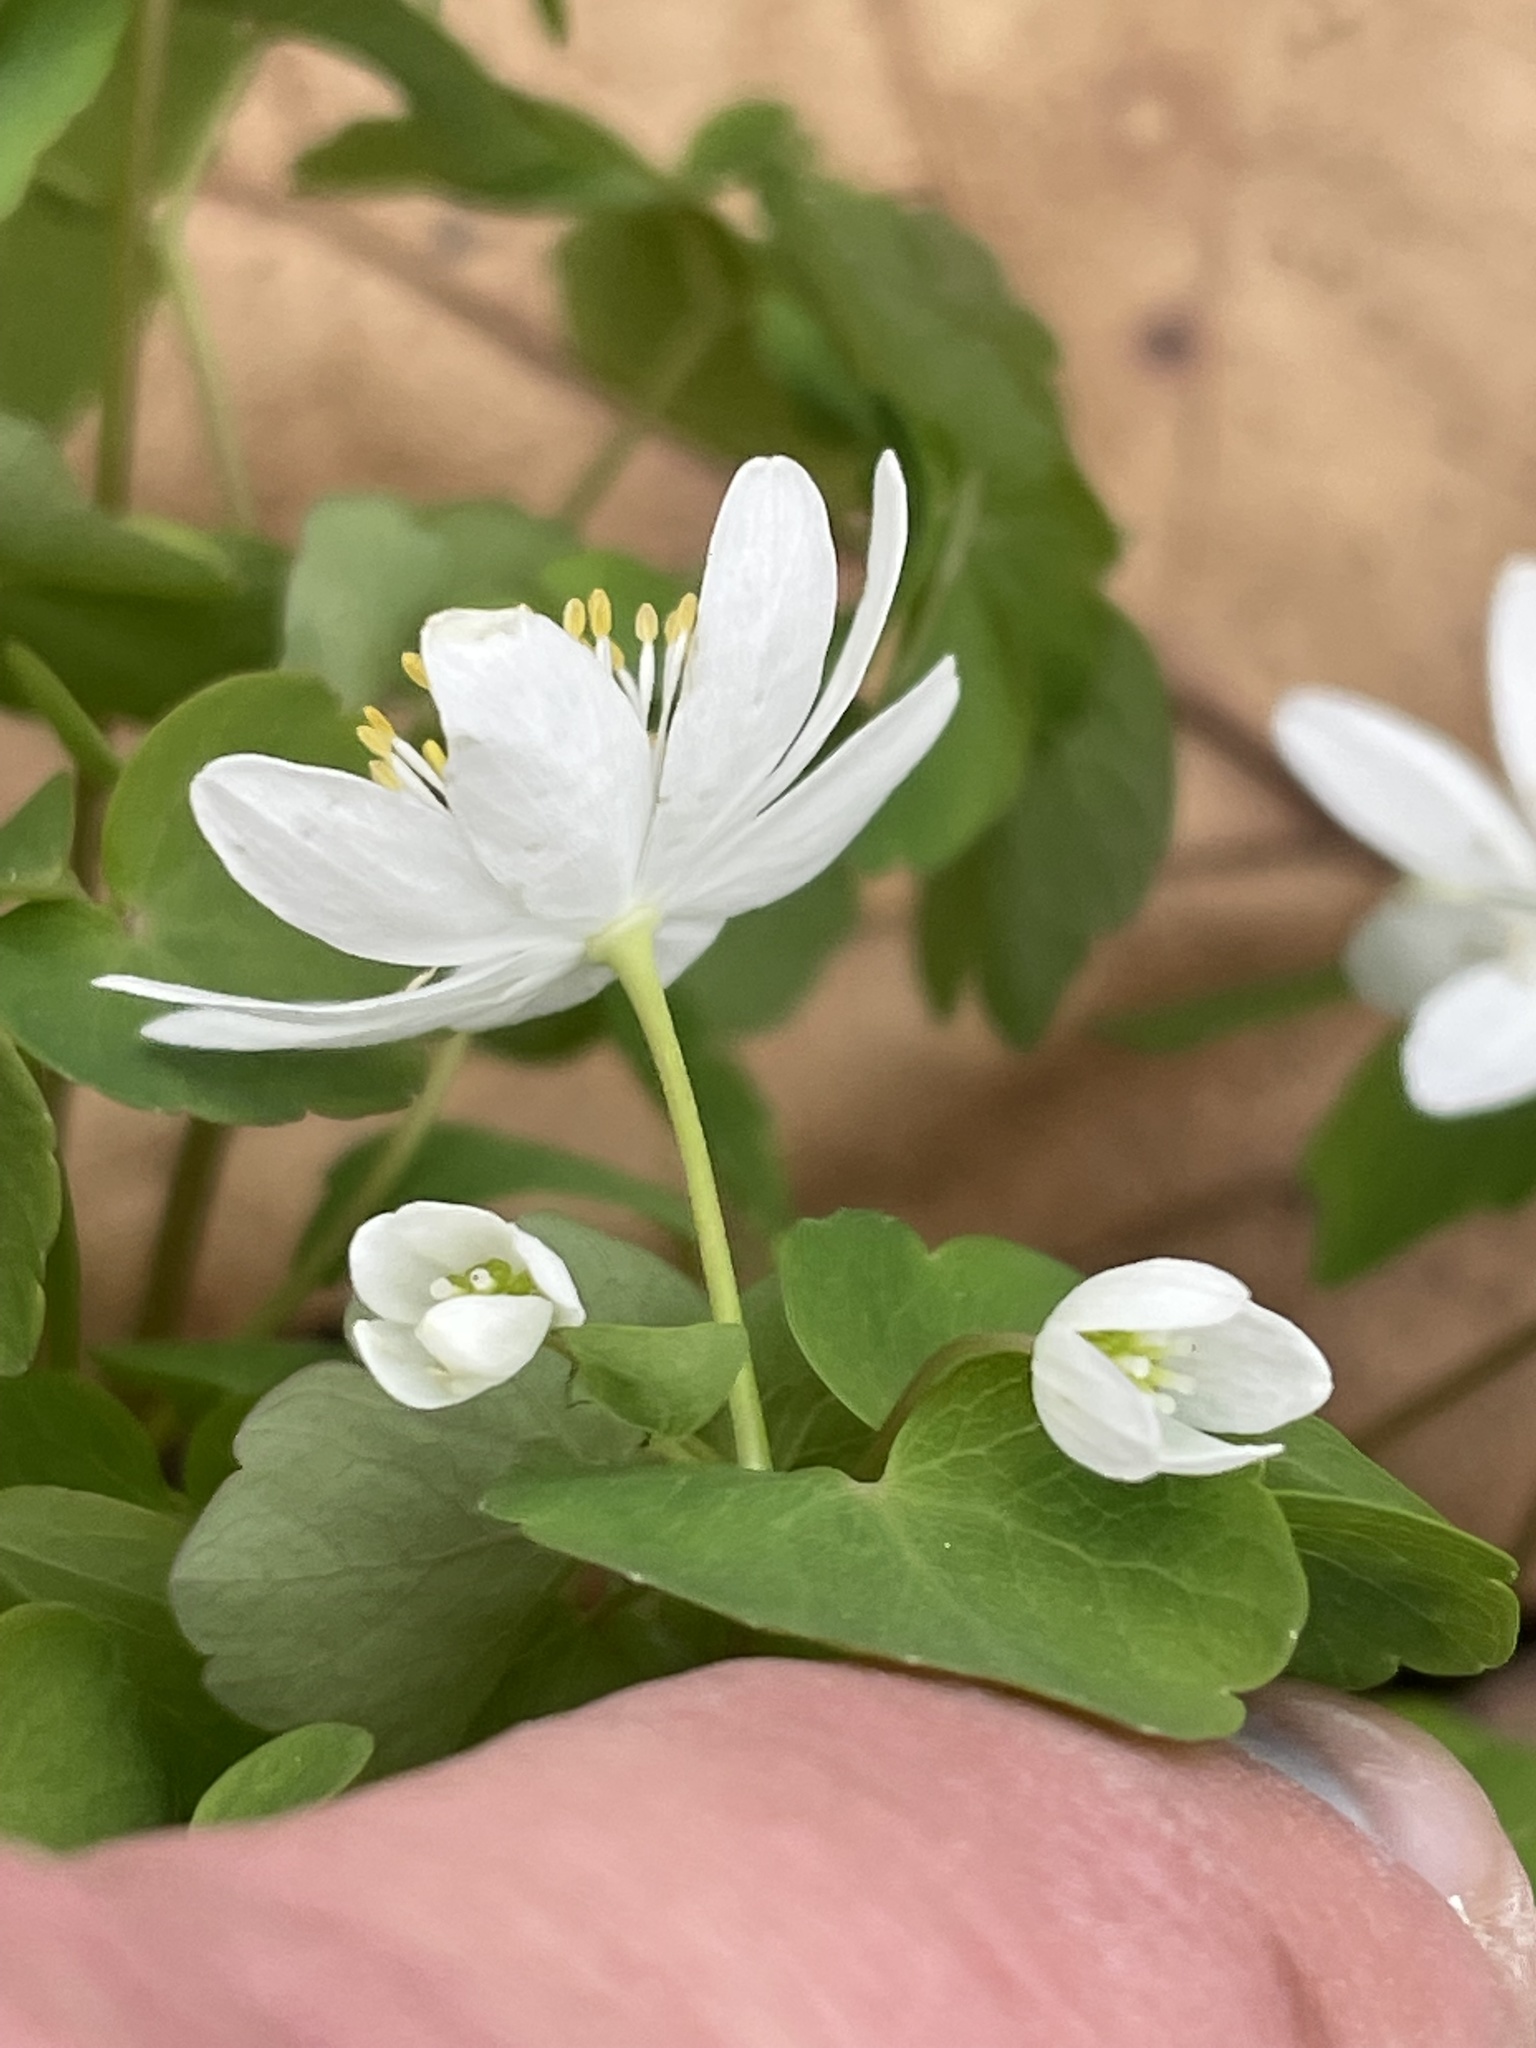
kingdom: Plantae
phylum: Tracheophyta
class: Magnoliopsida
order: Ranunculales
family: Ranunculaceae
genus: Thalictrum
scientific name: Thalictrum thalictroides
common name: Rue-anemone
